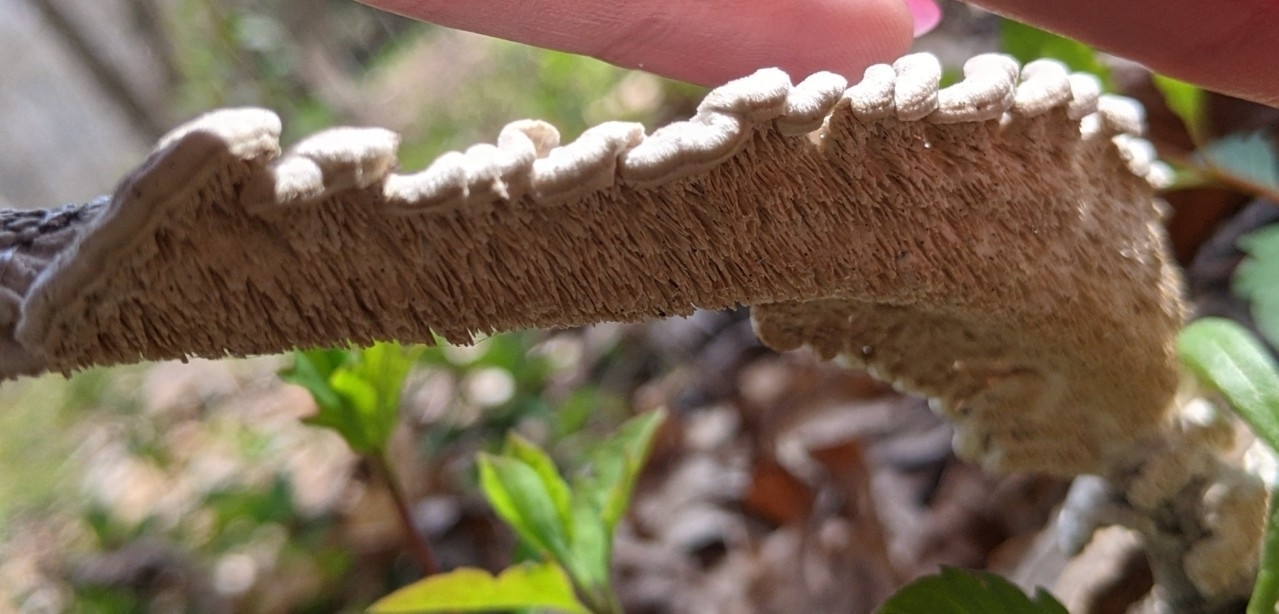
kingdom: Fungi
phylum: Basidiomycota
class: Agaricomycetes
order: Polyporales
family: Irpicaceae
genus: Irpex
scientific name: Irpex lacteus
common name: Milk-white toothed polypore
